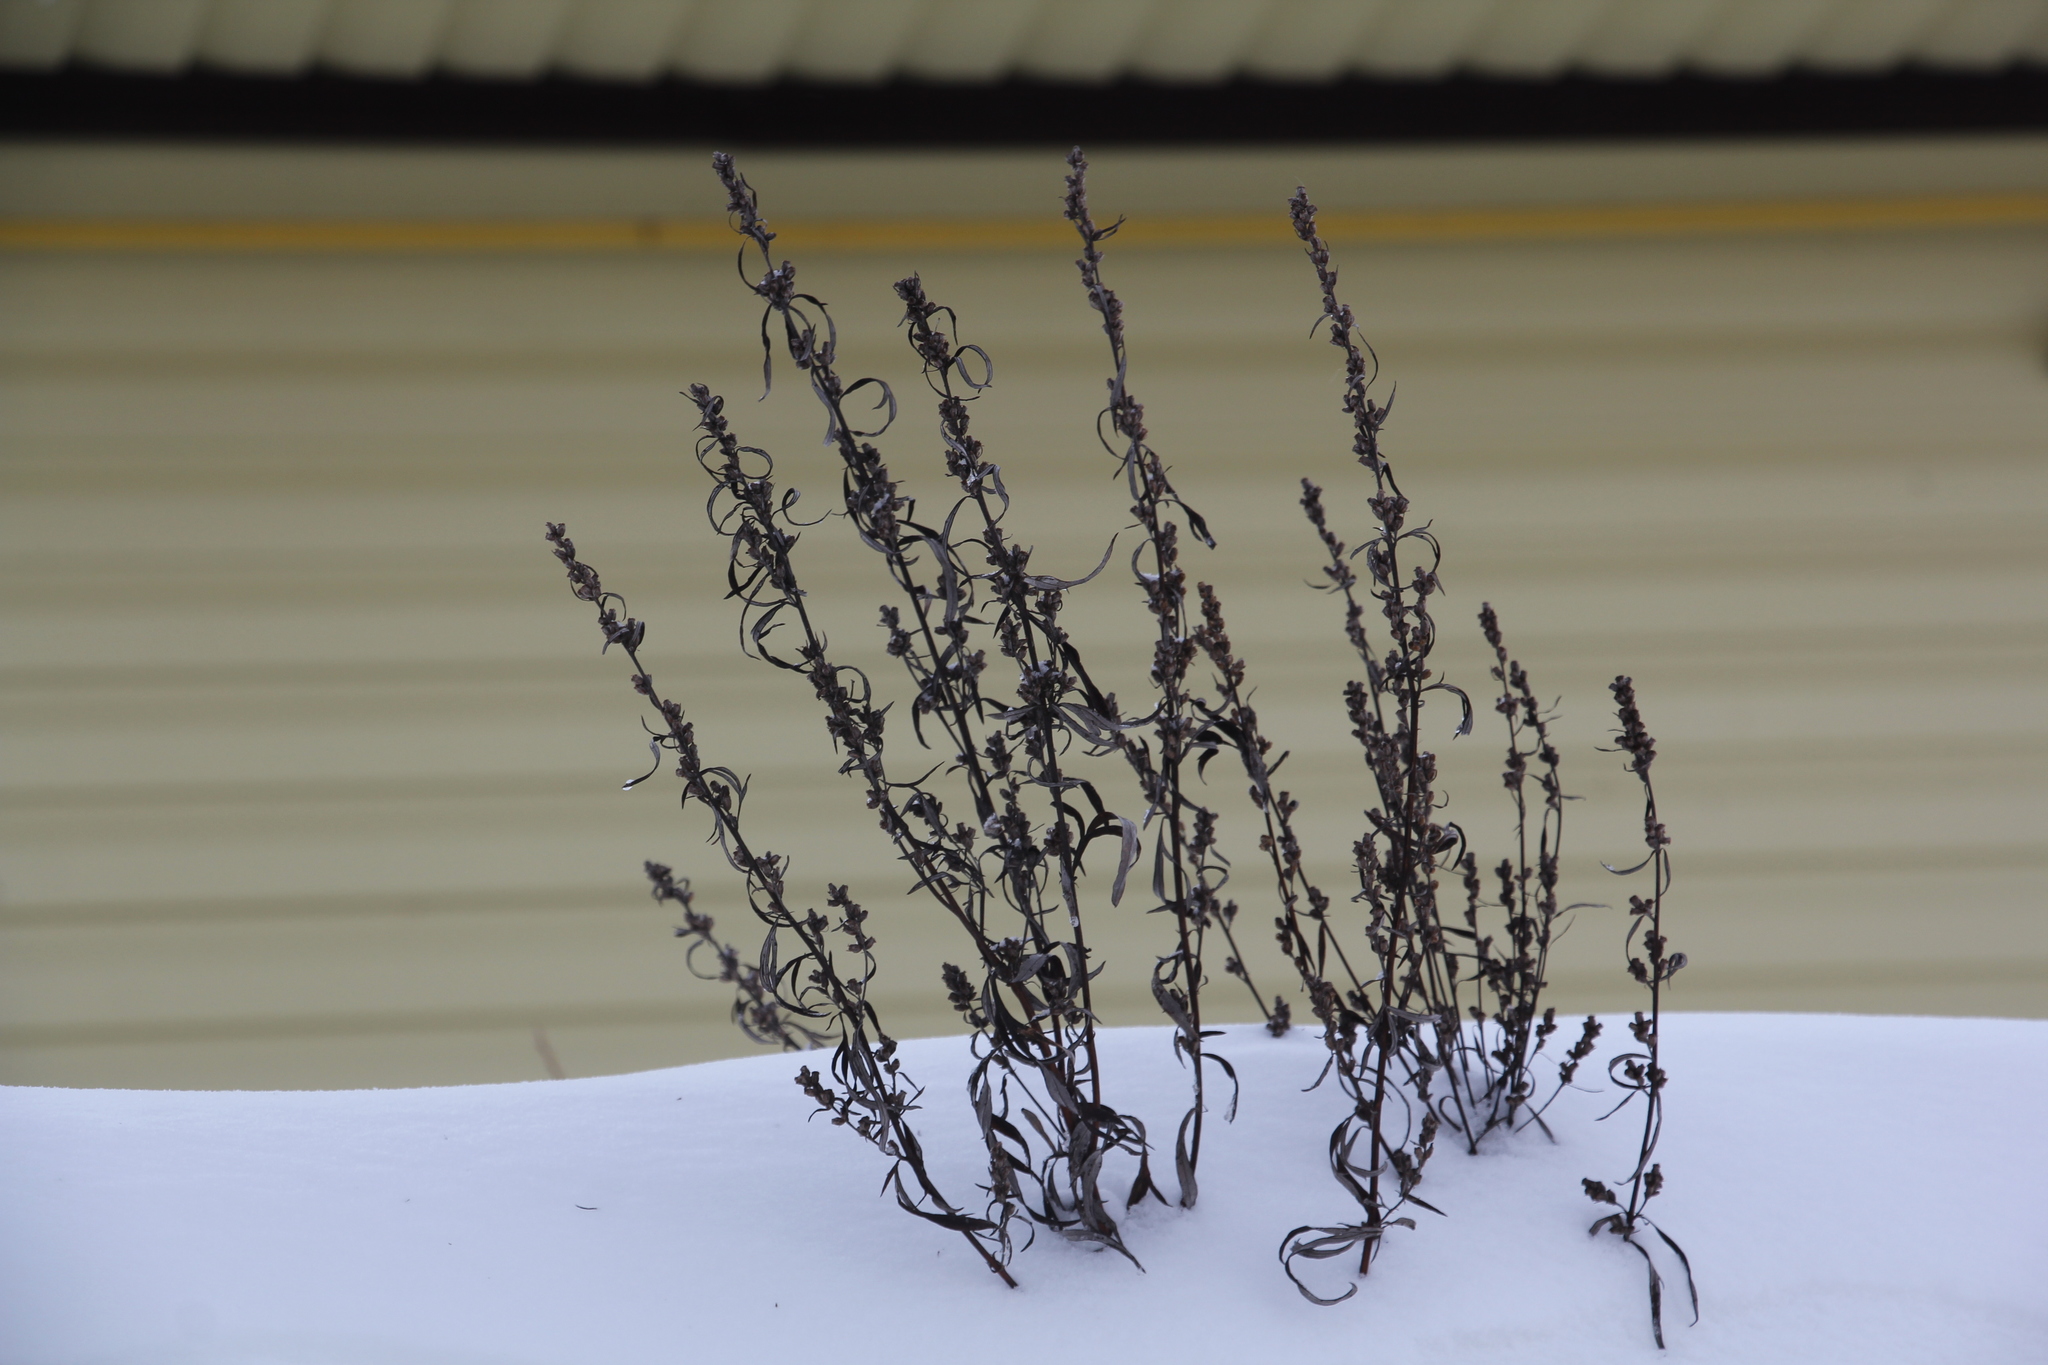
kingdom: Plantae
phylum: Tracheophyta
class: Magnoliopsida
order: Asterales
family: Asteraceae
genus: Artemisia
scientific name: Artemisia vulgaris
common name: Mugwort
